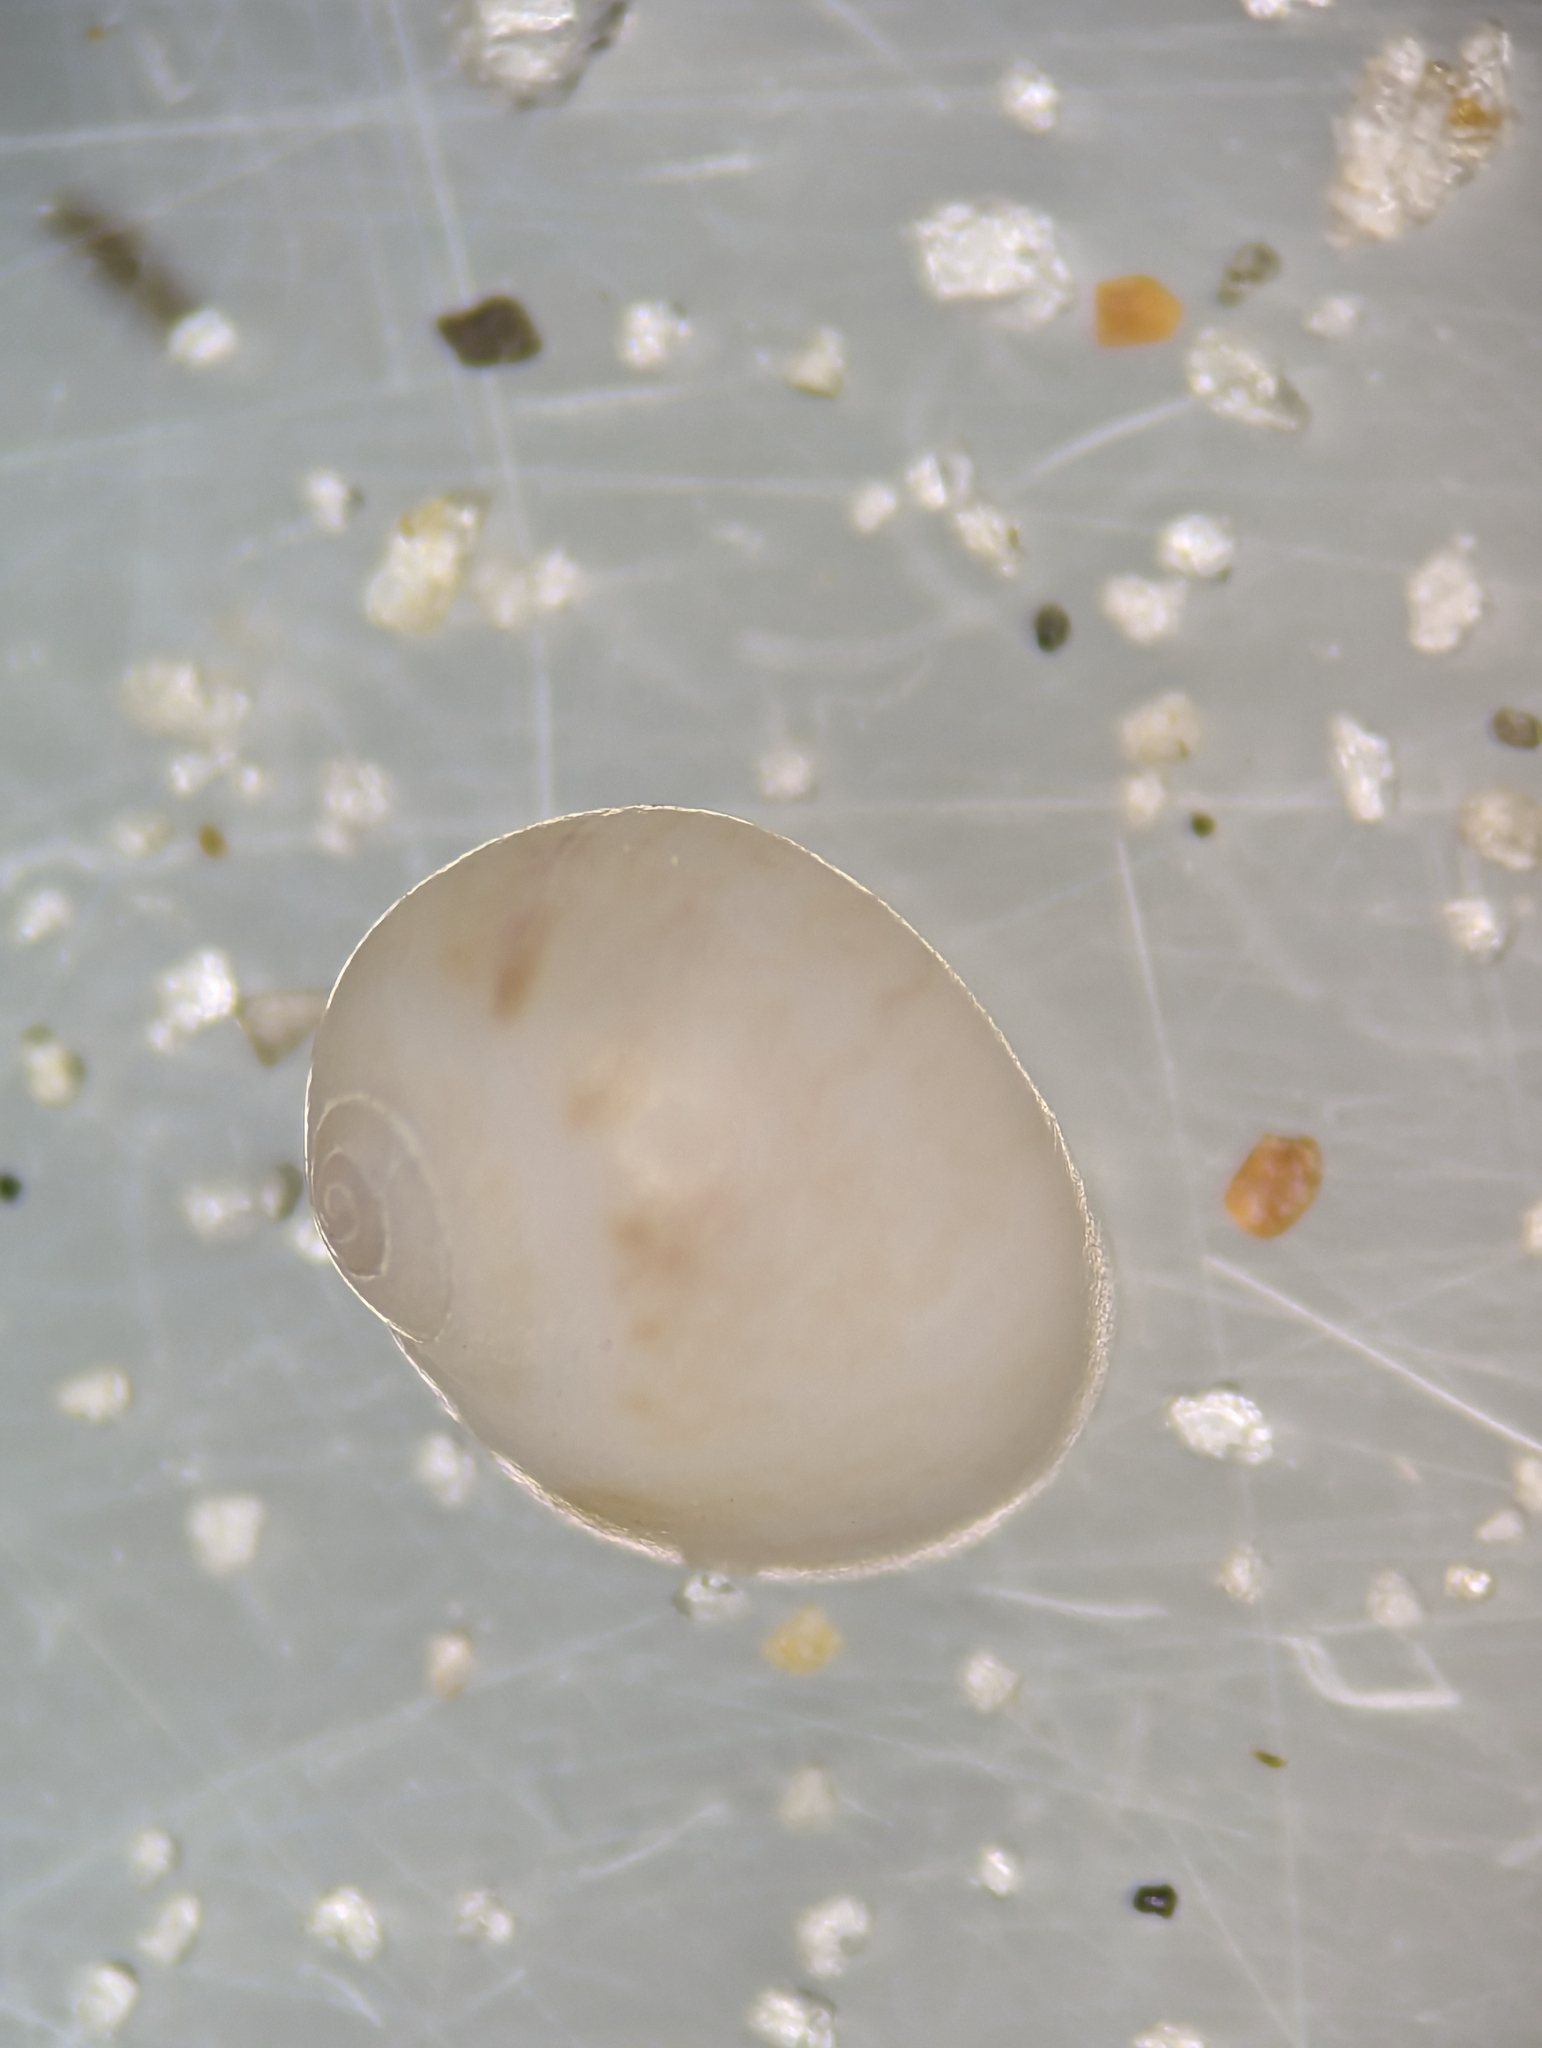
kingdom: Animalia
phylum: Mollusca
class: Gastropoda
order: Littorinimorpha
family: Naticidae
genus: Naticarius
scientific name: Naticarius canrena
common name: Colorful moonsnail
